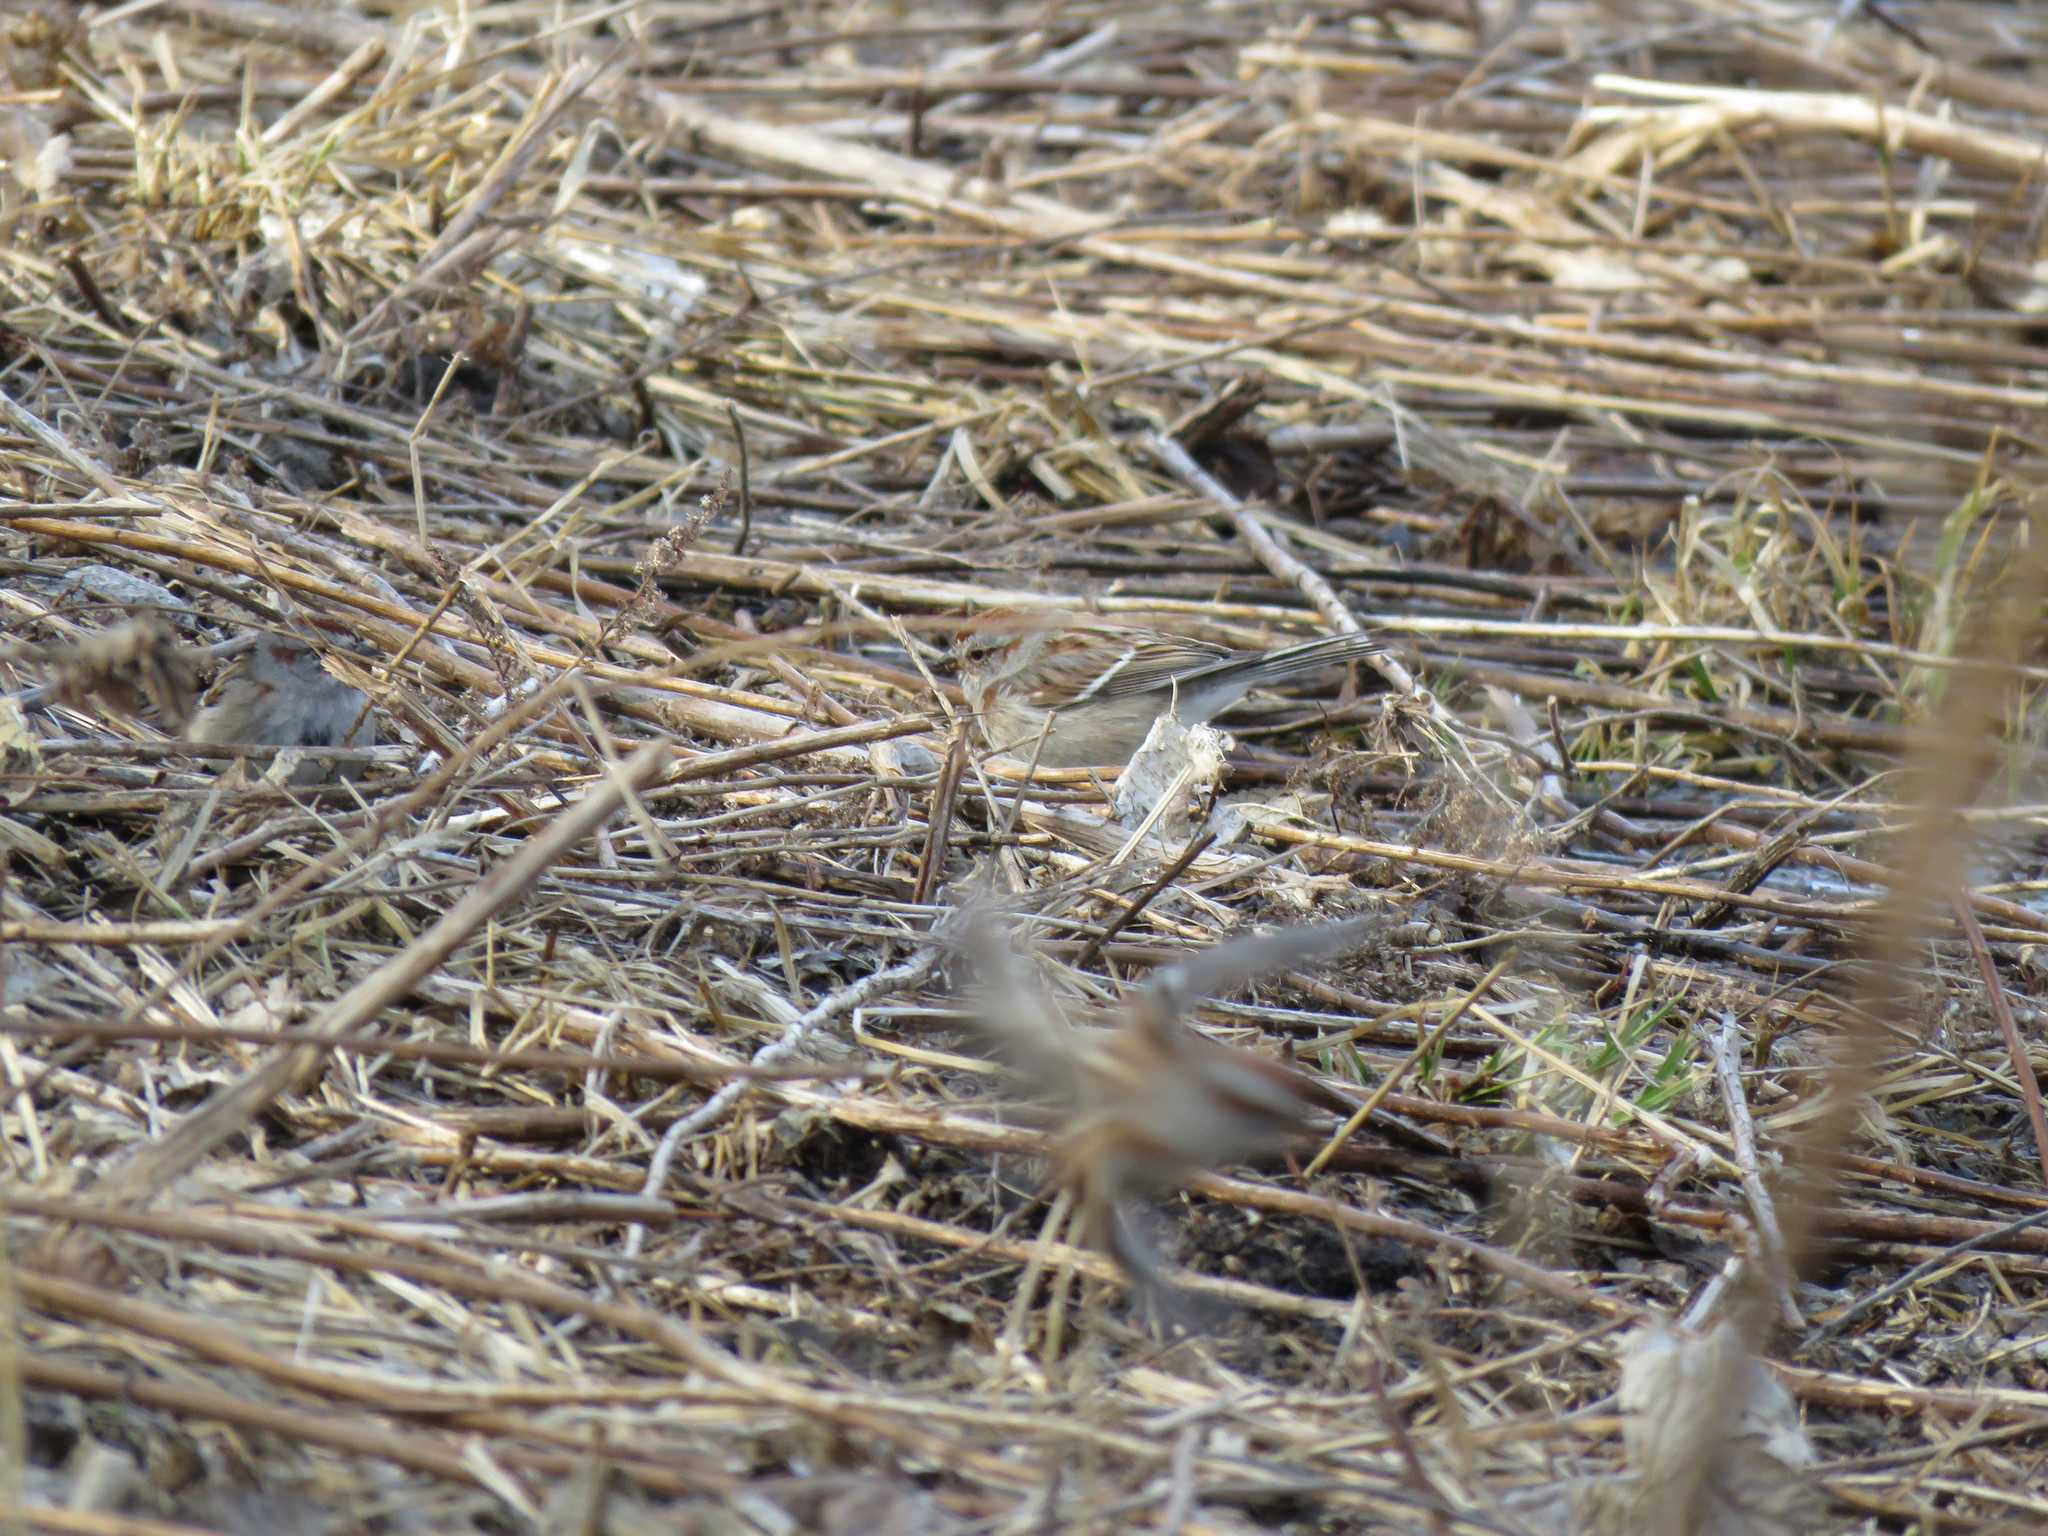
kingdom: Animalia
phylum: Chordata
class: Aves
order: Passeriformes
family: Passerellidae
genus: Spizelloides
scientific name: Spizelloides arborea
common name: American tree sparrow
